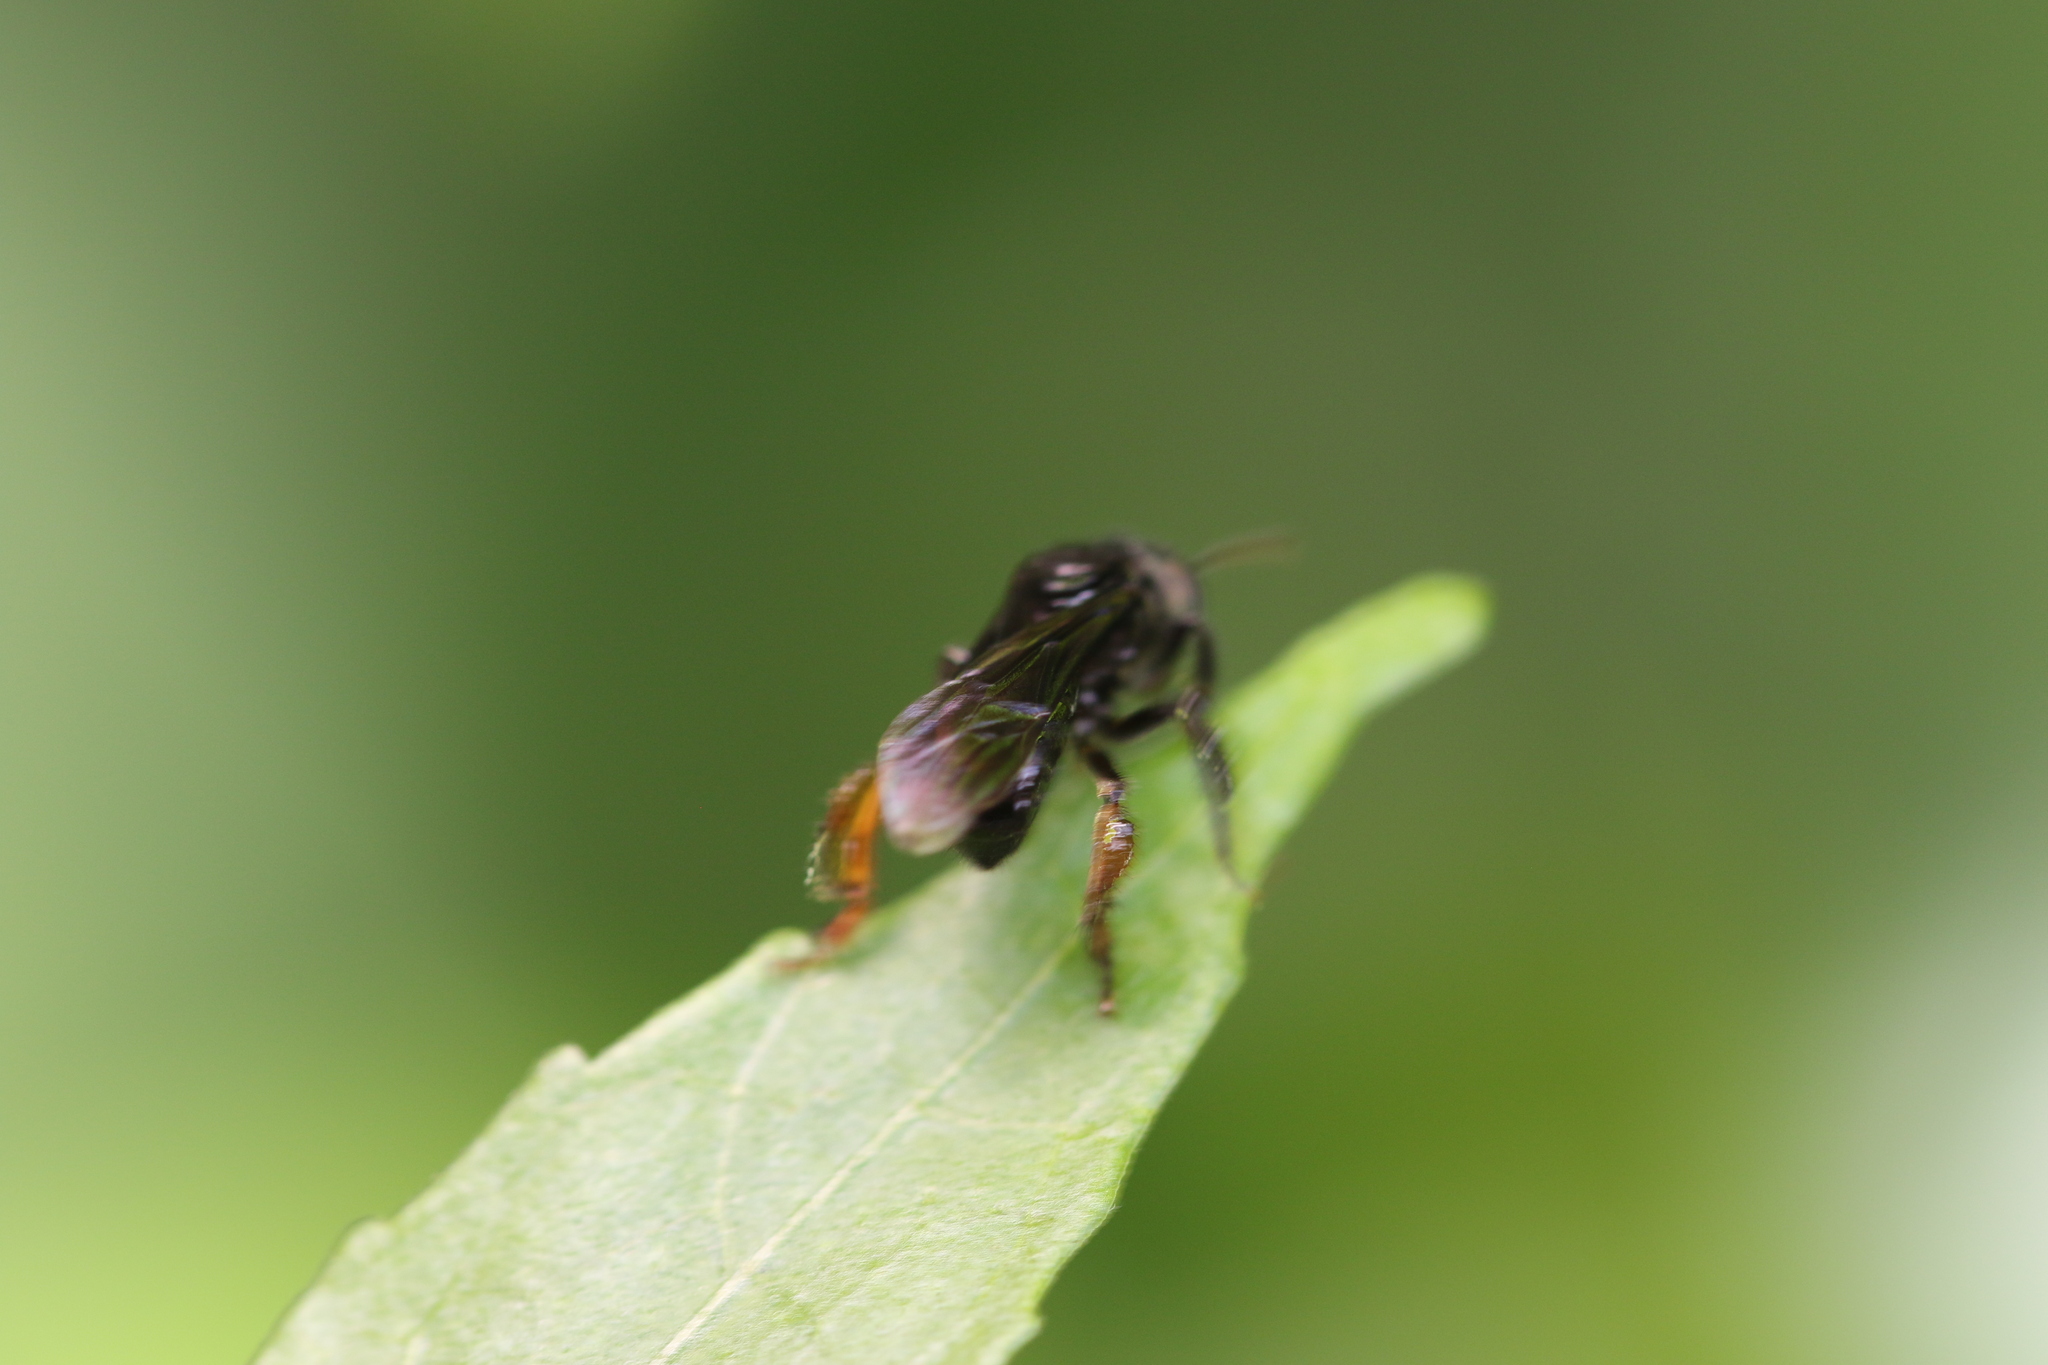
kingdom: Animalia
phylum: Arthropoda
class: Insecta
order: Hymenoptera
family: Apidae
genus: Trigona
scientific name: Trigona spinipes
